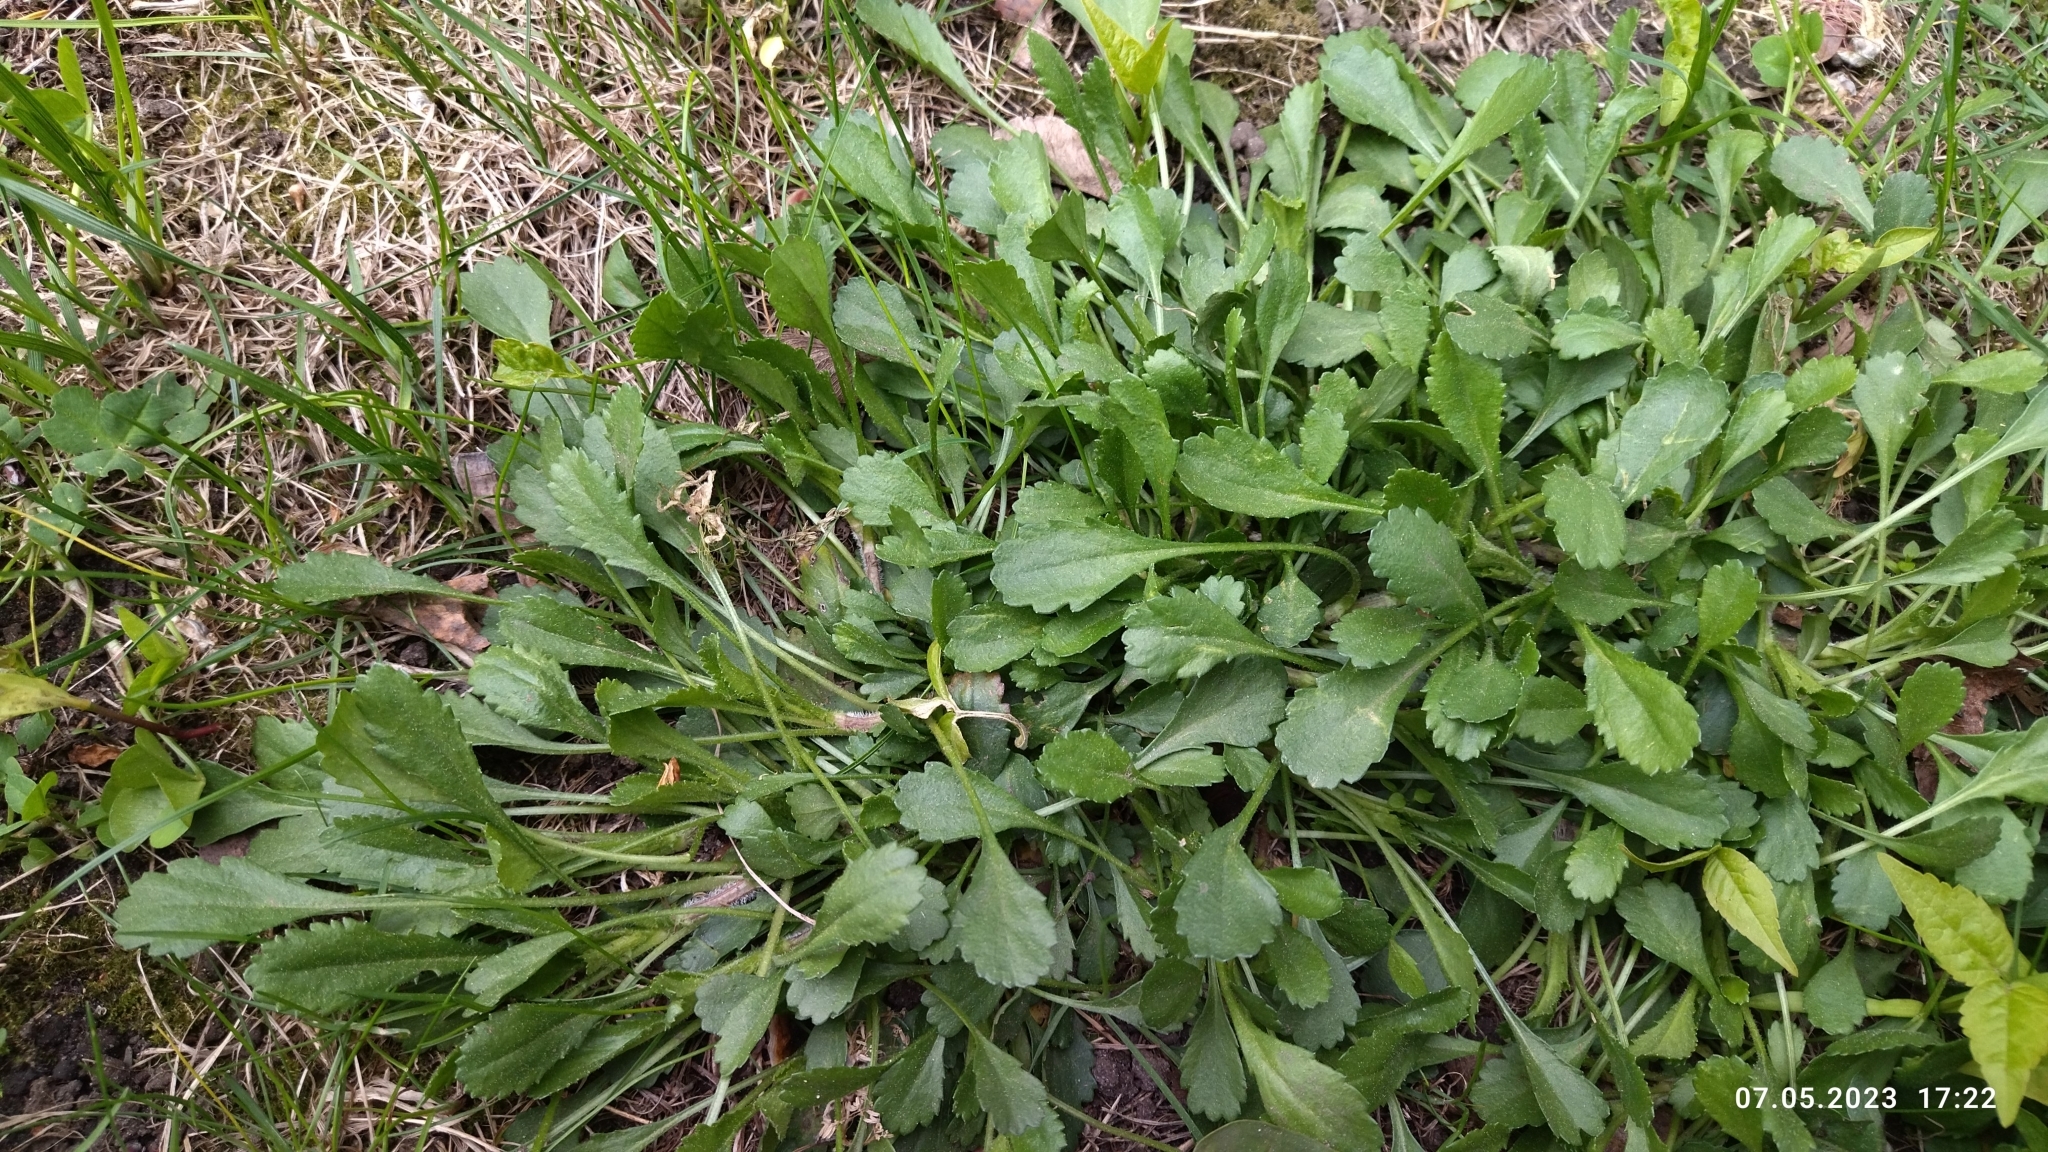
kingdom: Plantae
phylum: Tracheophyta
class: Magnoliopsida
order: Asterales
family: Asteraceae
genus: Leucanthemum
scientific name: Leucanthemum vulgare
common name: Oxeye daisy
